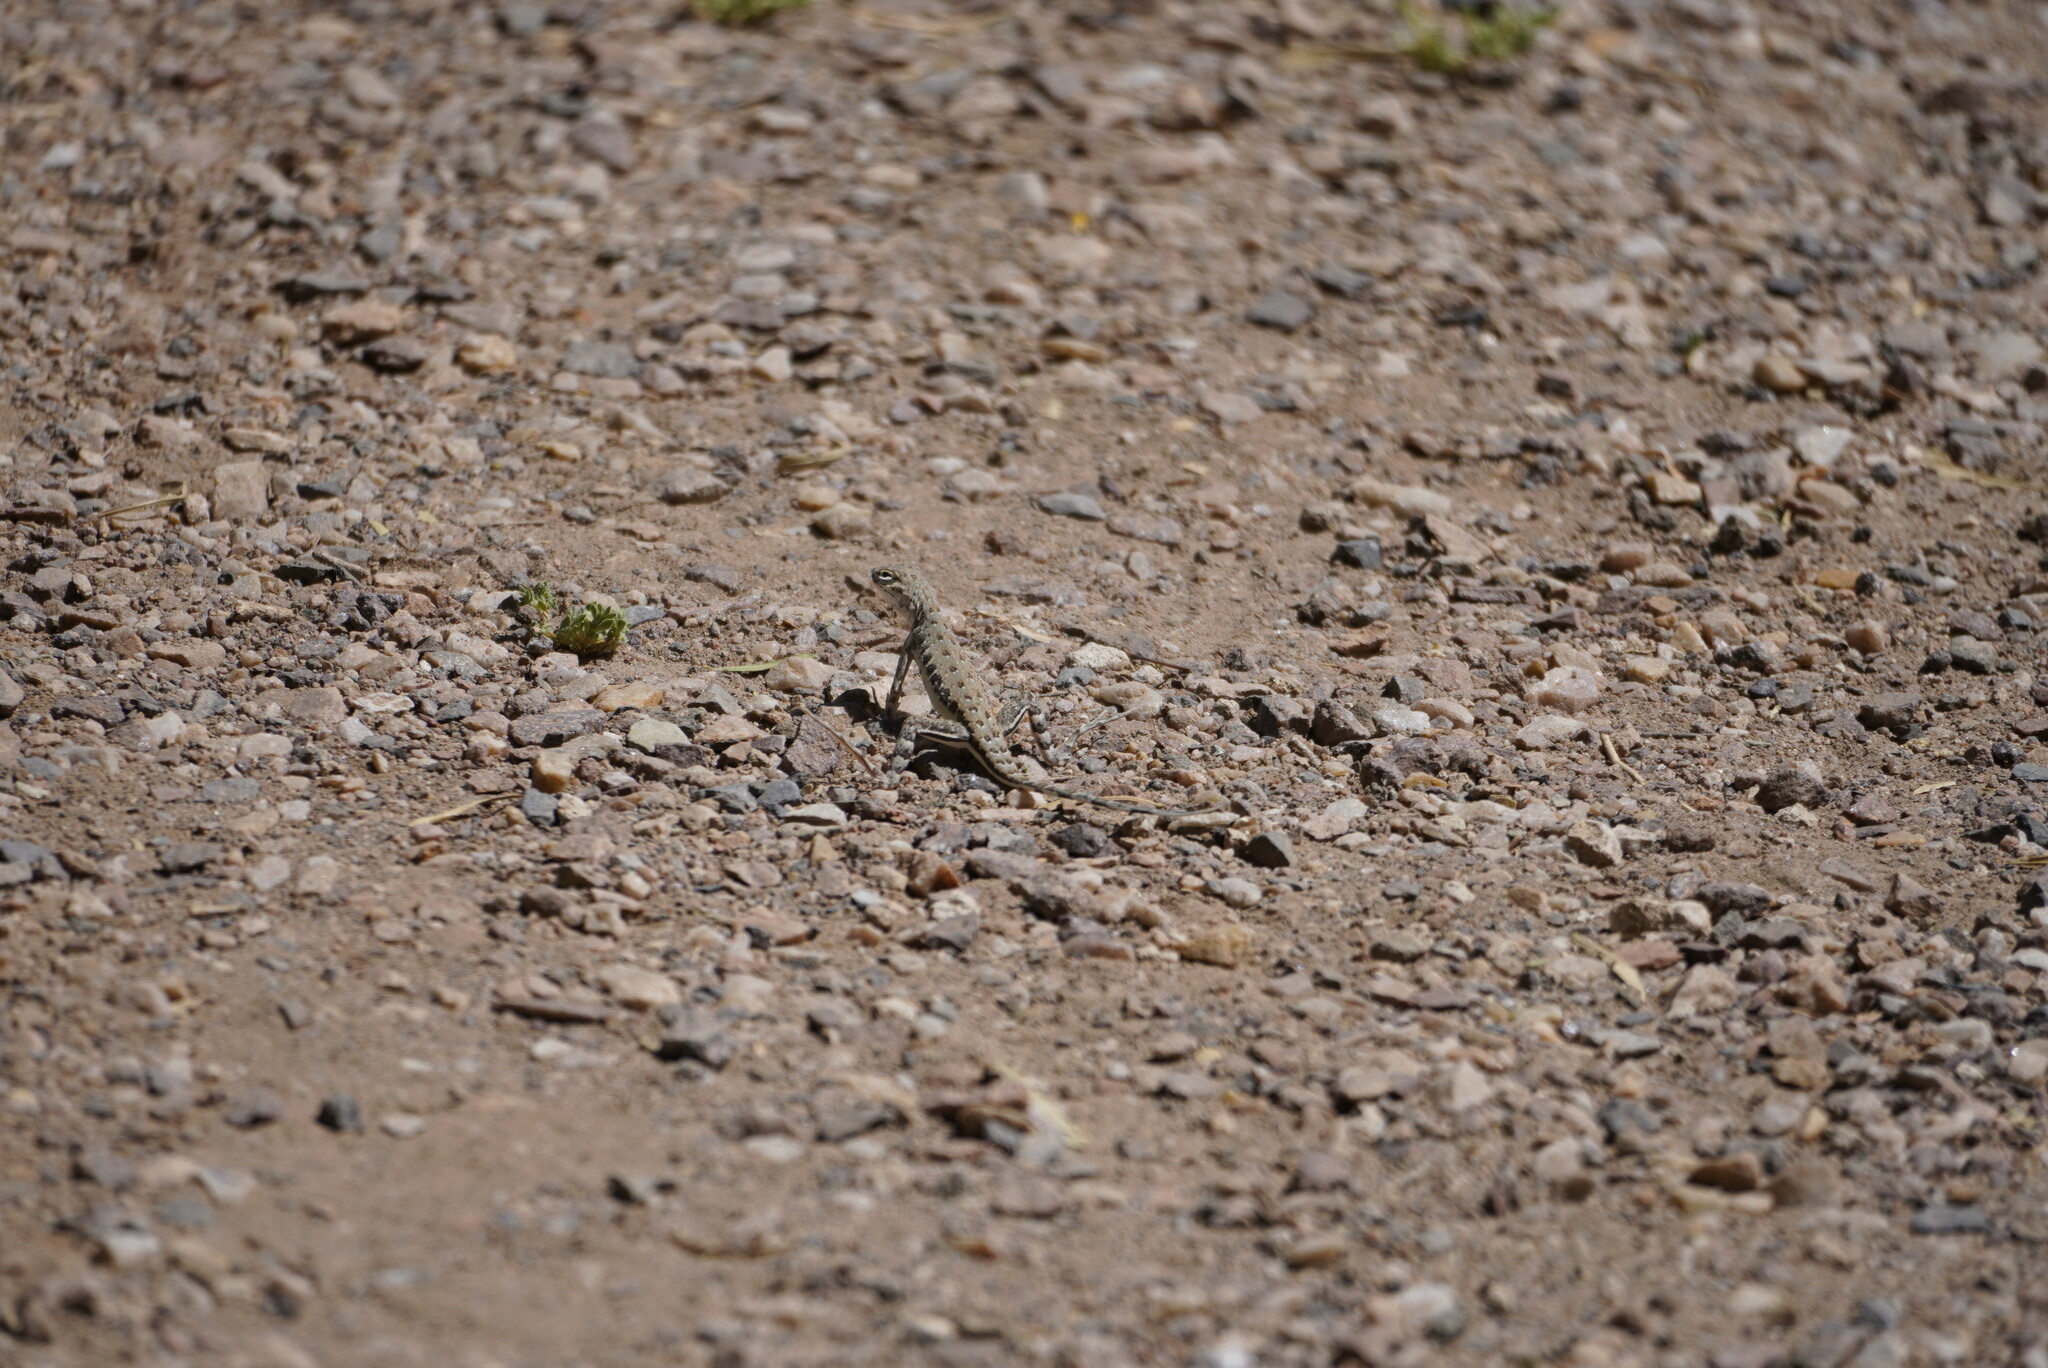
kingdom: Animalia
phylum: Chordata
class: Squamata
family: Phrynosomatidae
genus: Callisaurus
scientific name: Callisaurus draconoides
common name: Zebra-tailed lizard
